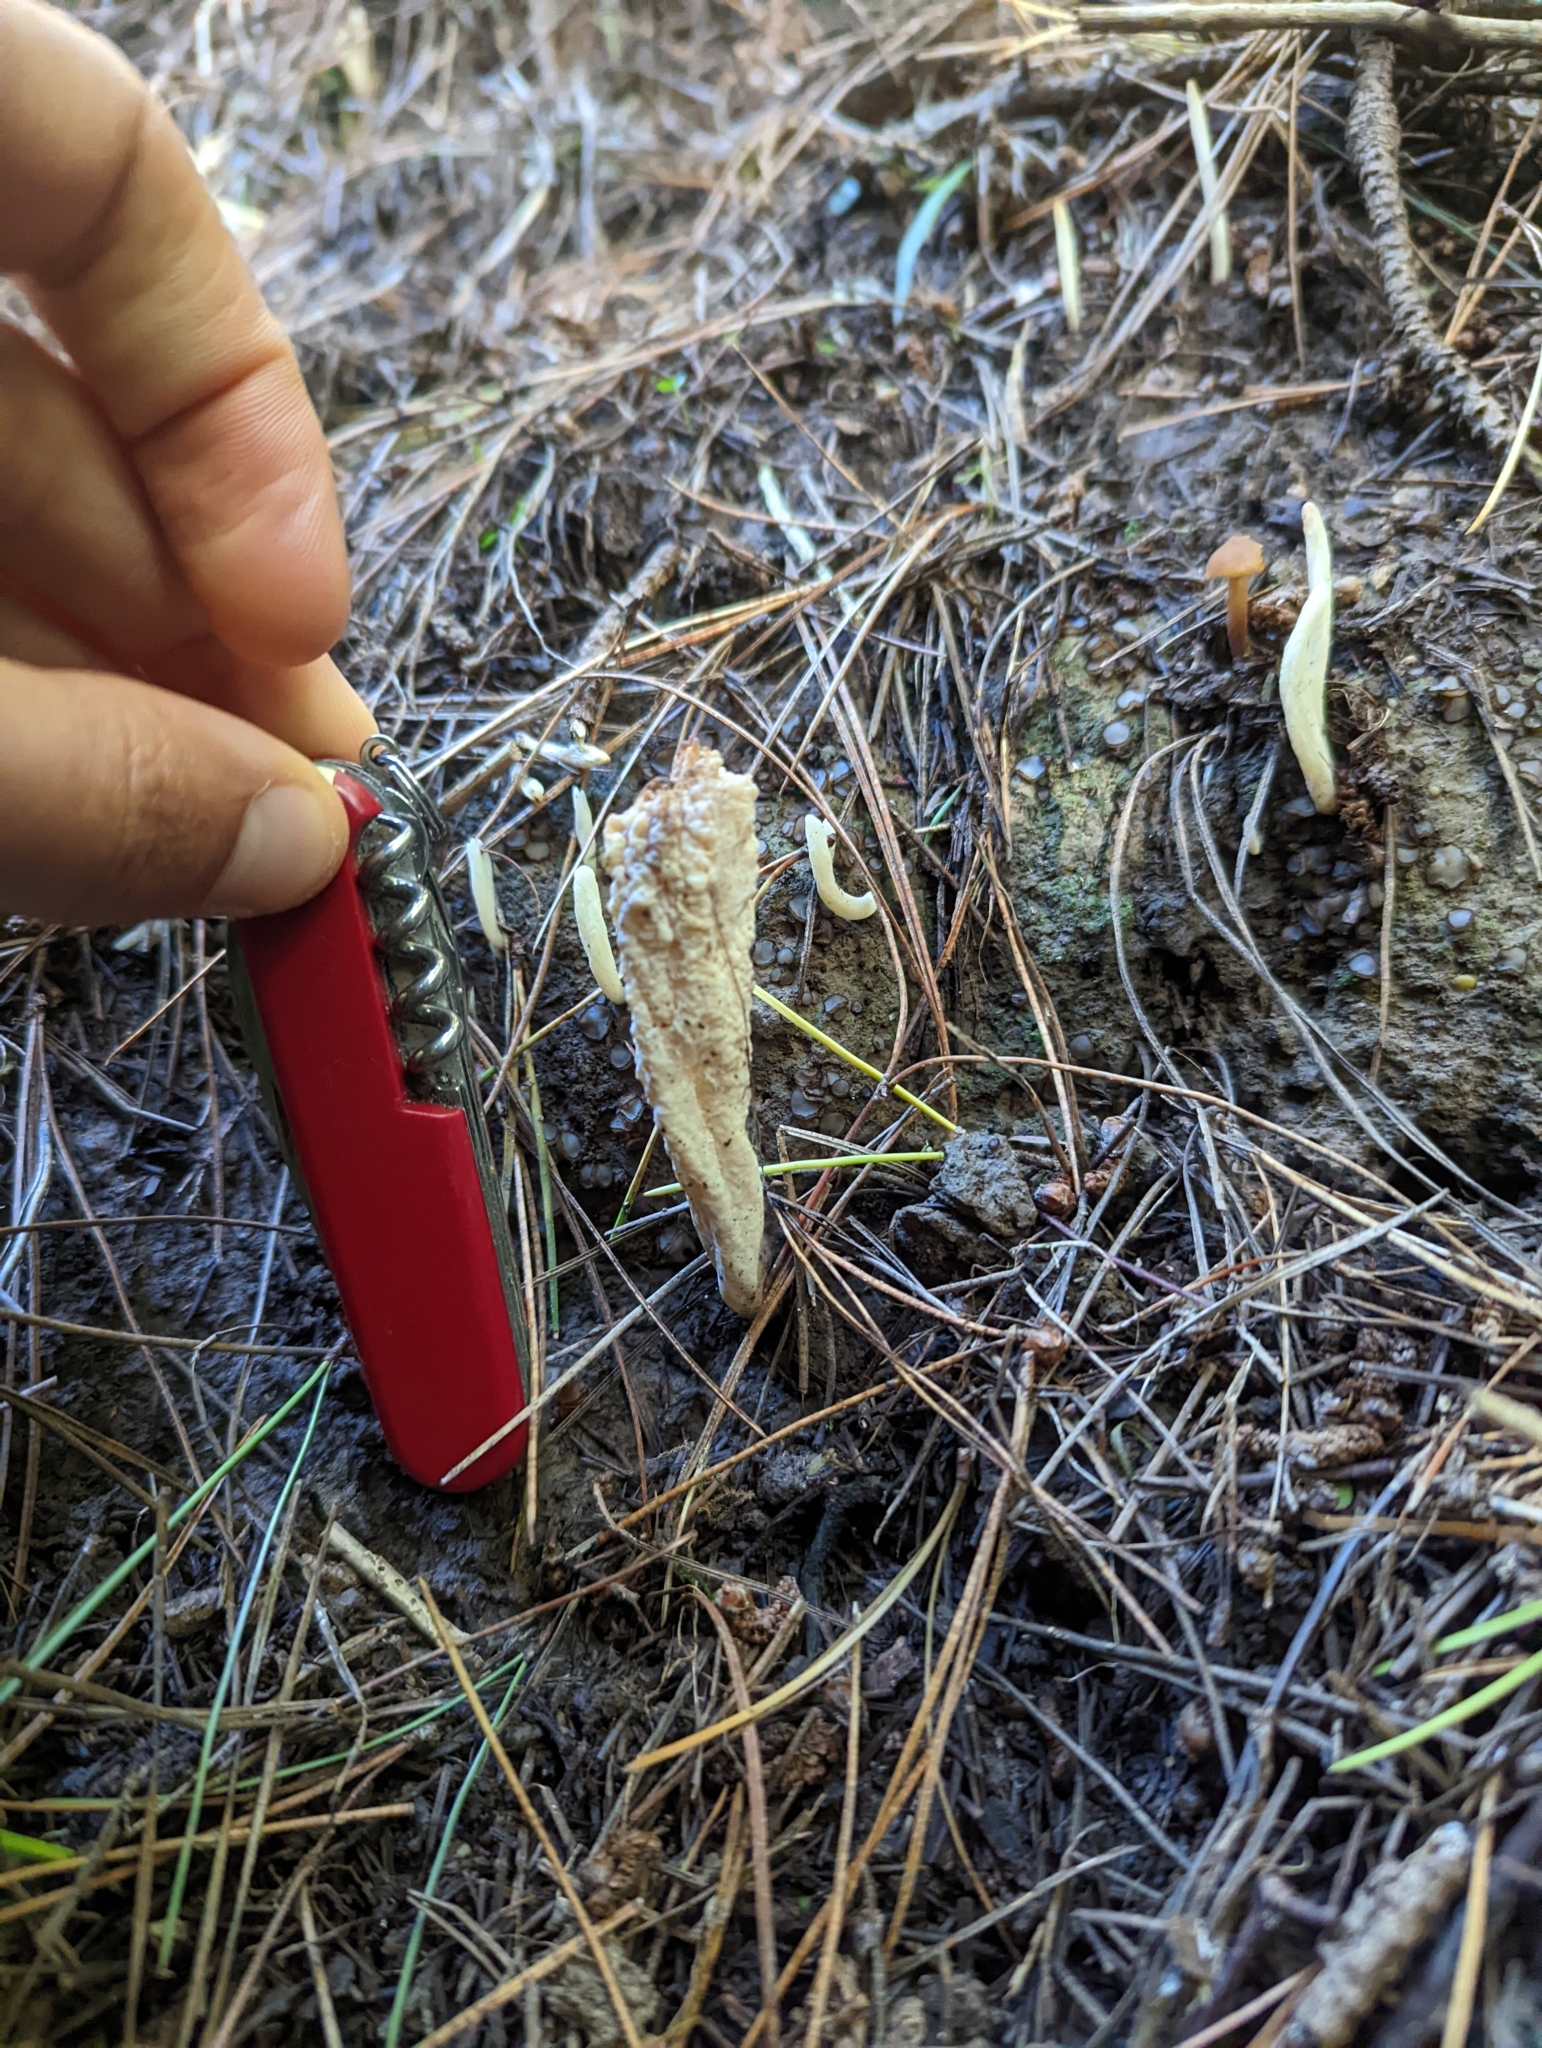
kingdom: Fungi
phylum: Basidiomycota
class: Agaricomycetes
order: Cantharellales
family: Hydnaceae
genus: Clavulina
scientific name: Clavulina rugosa
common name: Wrinkled club
